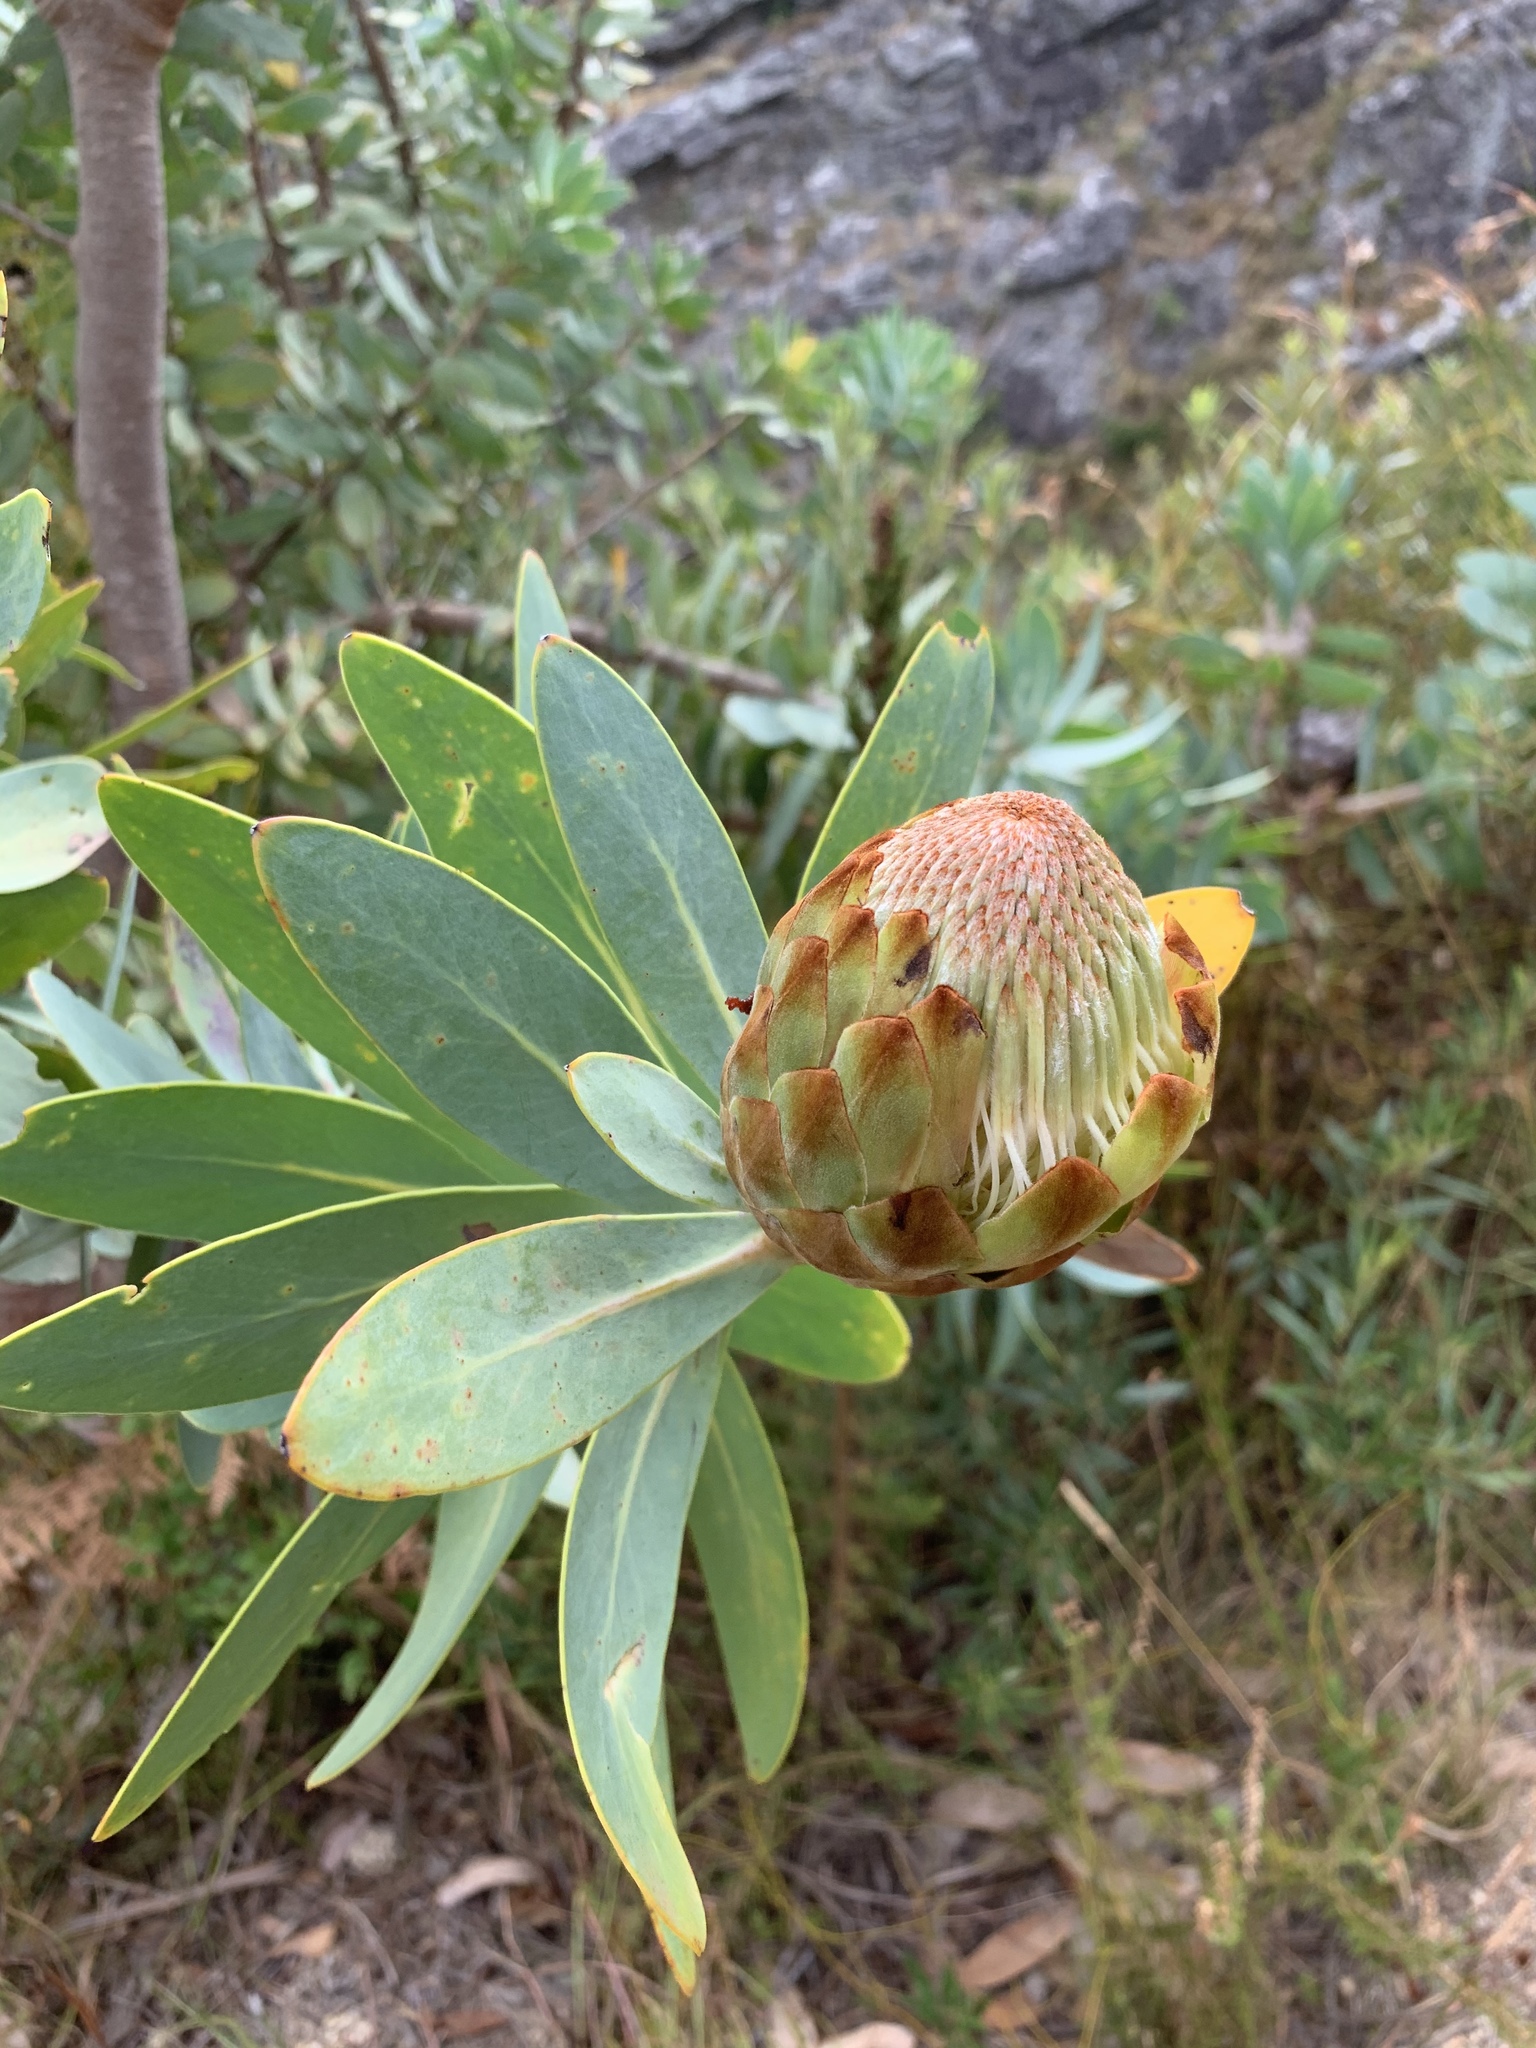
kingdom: Plantae
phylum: Tracheophyta
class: Magnoliopsida
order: Proteales
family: Proteaceae
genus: Protea
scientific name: Protea nitida
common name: Tree protea
